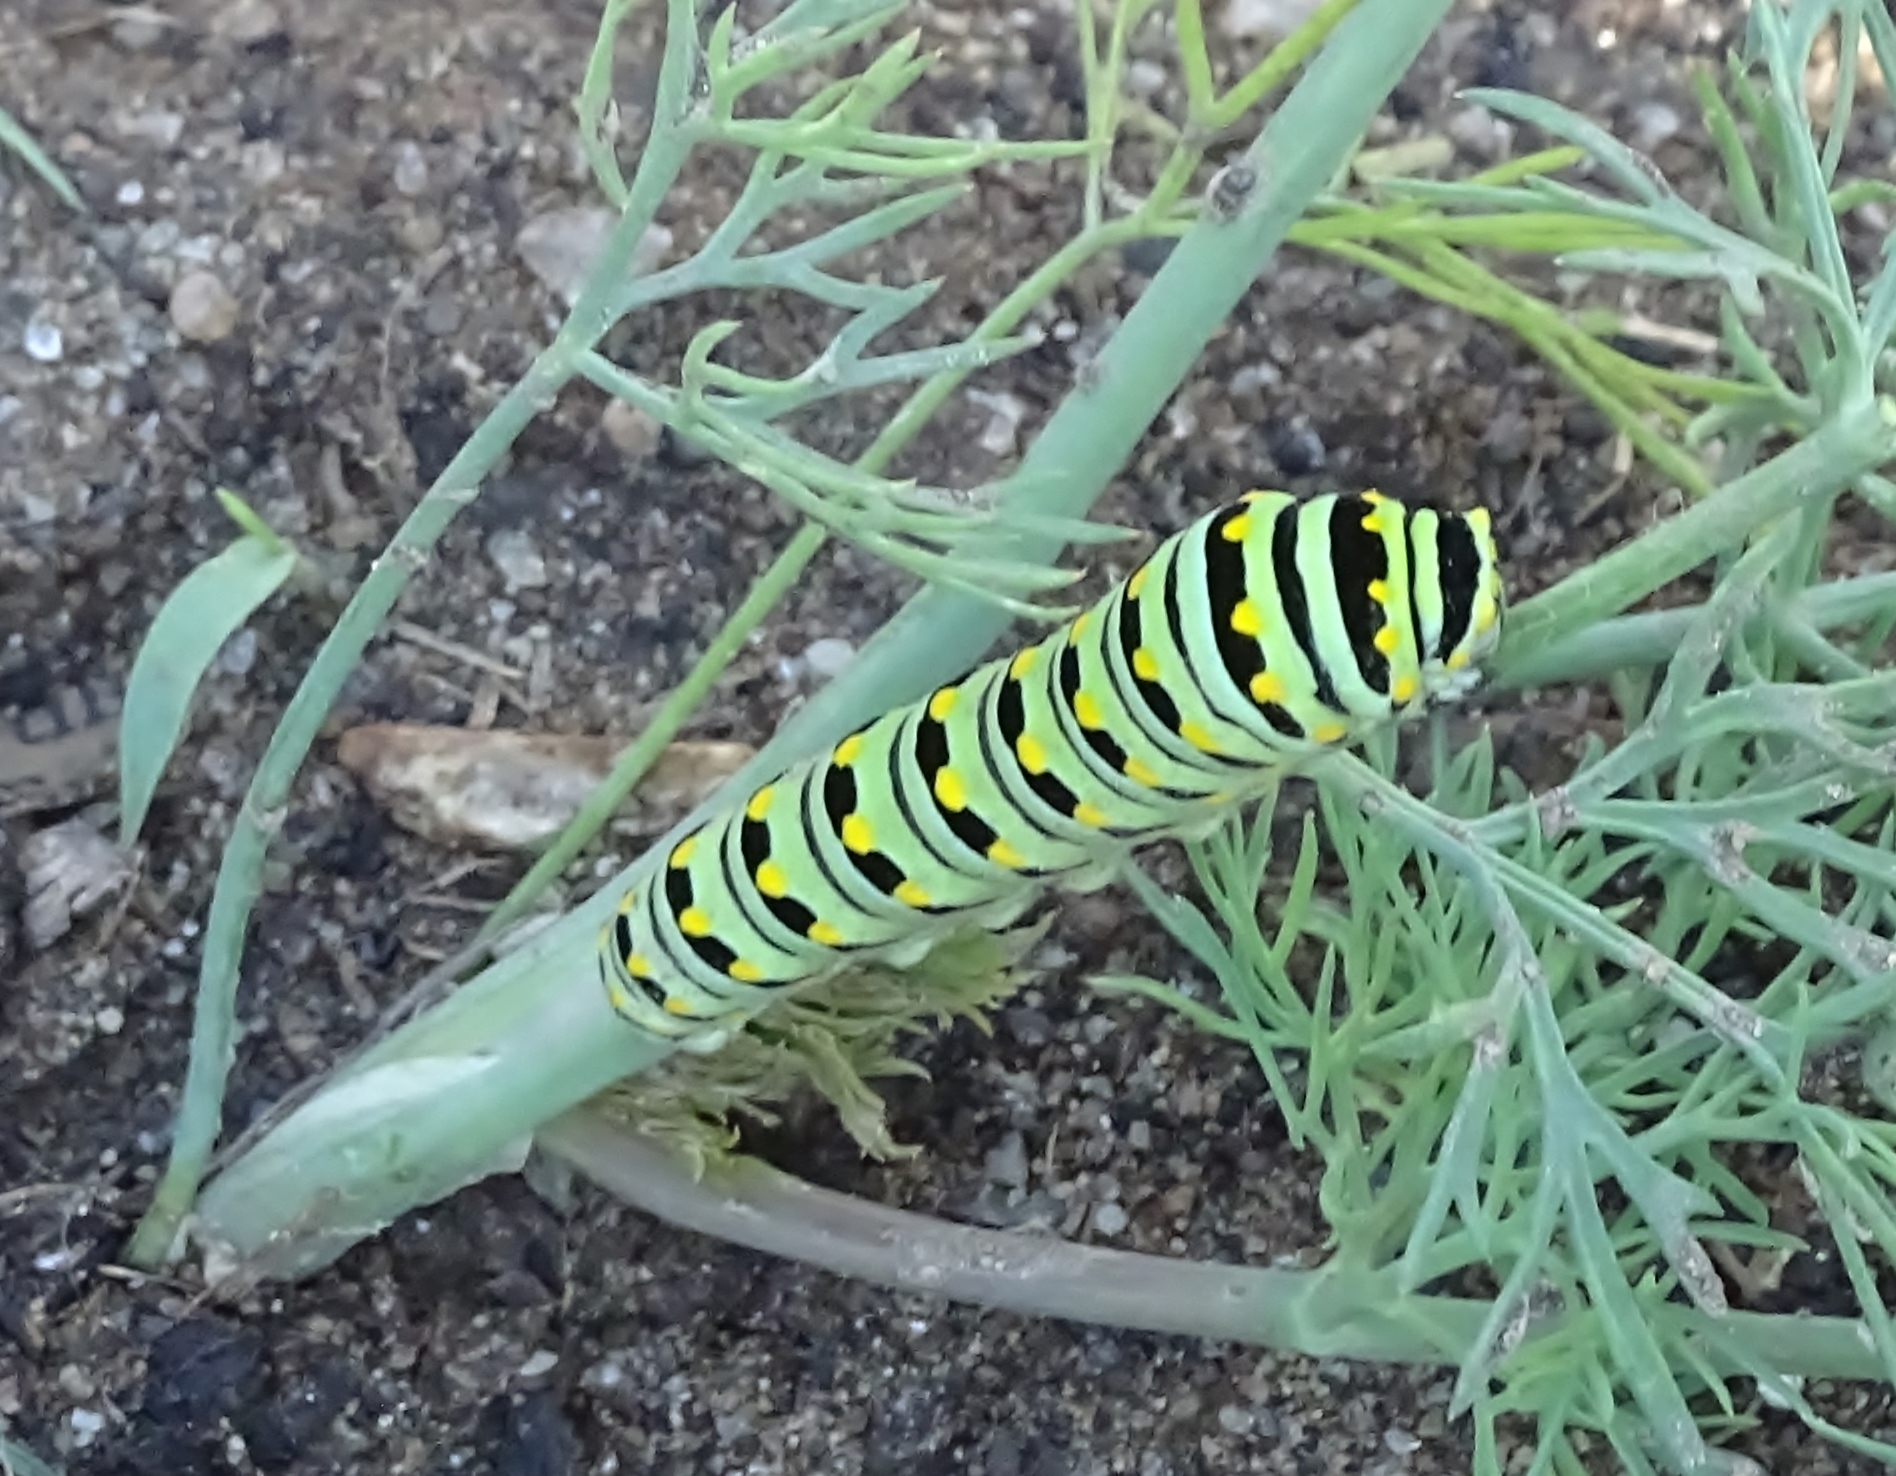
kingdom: Animalia
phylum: Arthropoda
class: Insecta
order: Lepidoptera
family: Papilionidae
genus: Papilio
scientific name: Papilio polyxenes
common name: Black swallowtail
